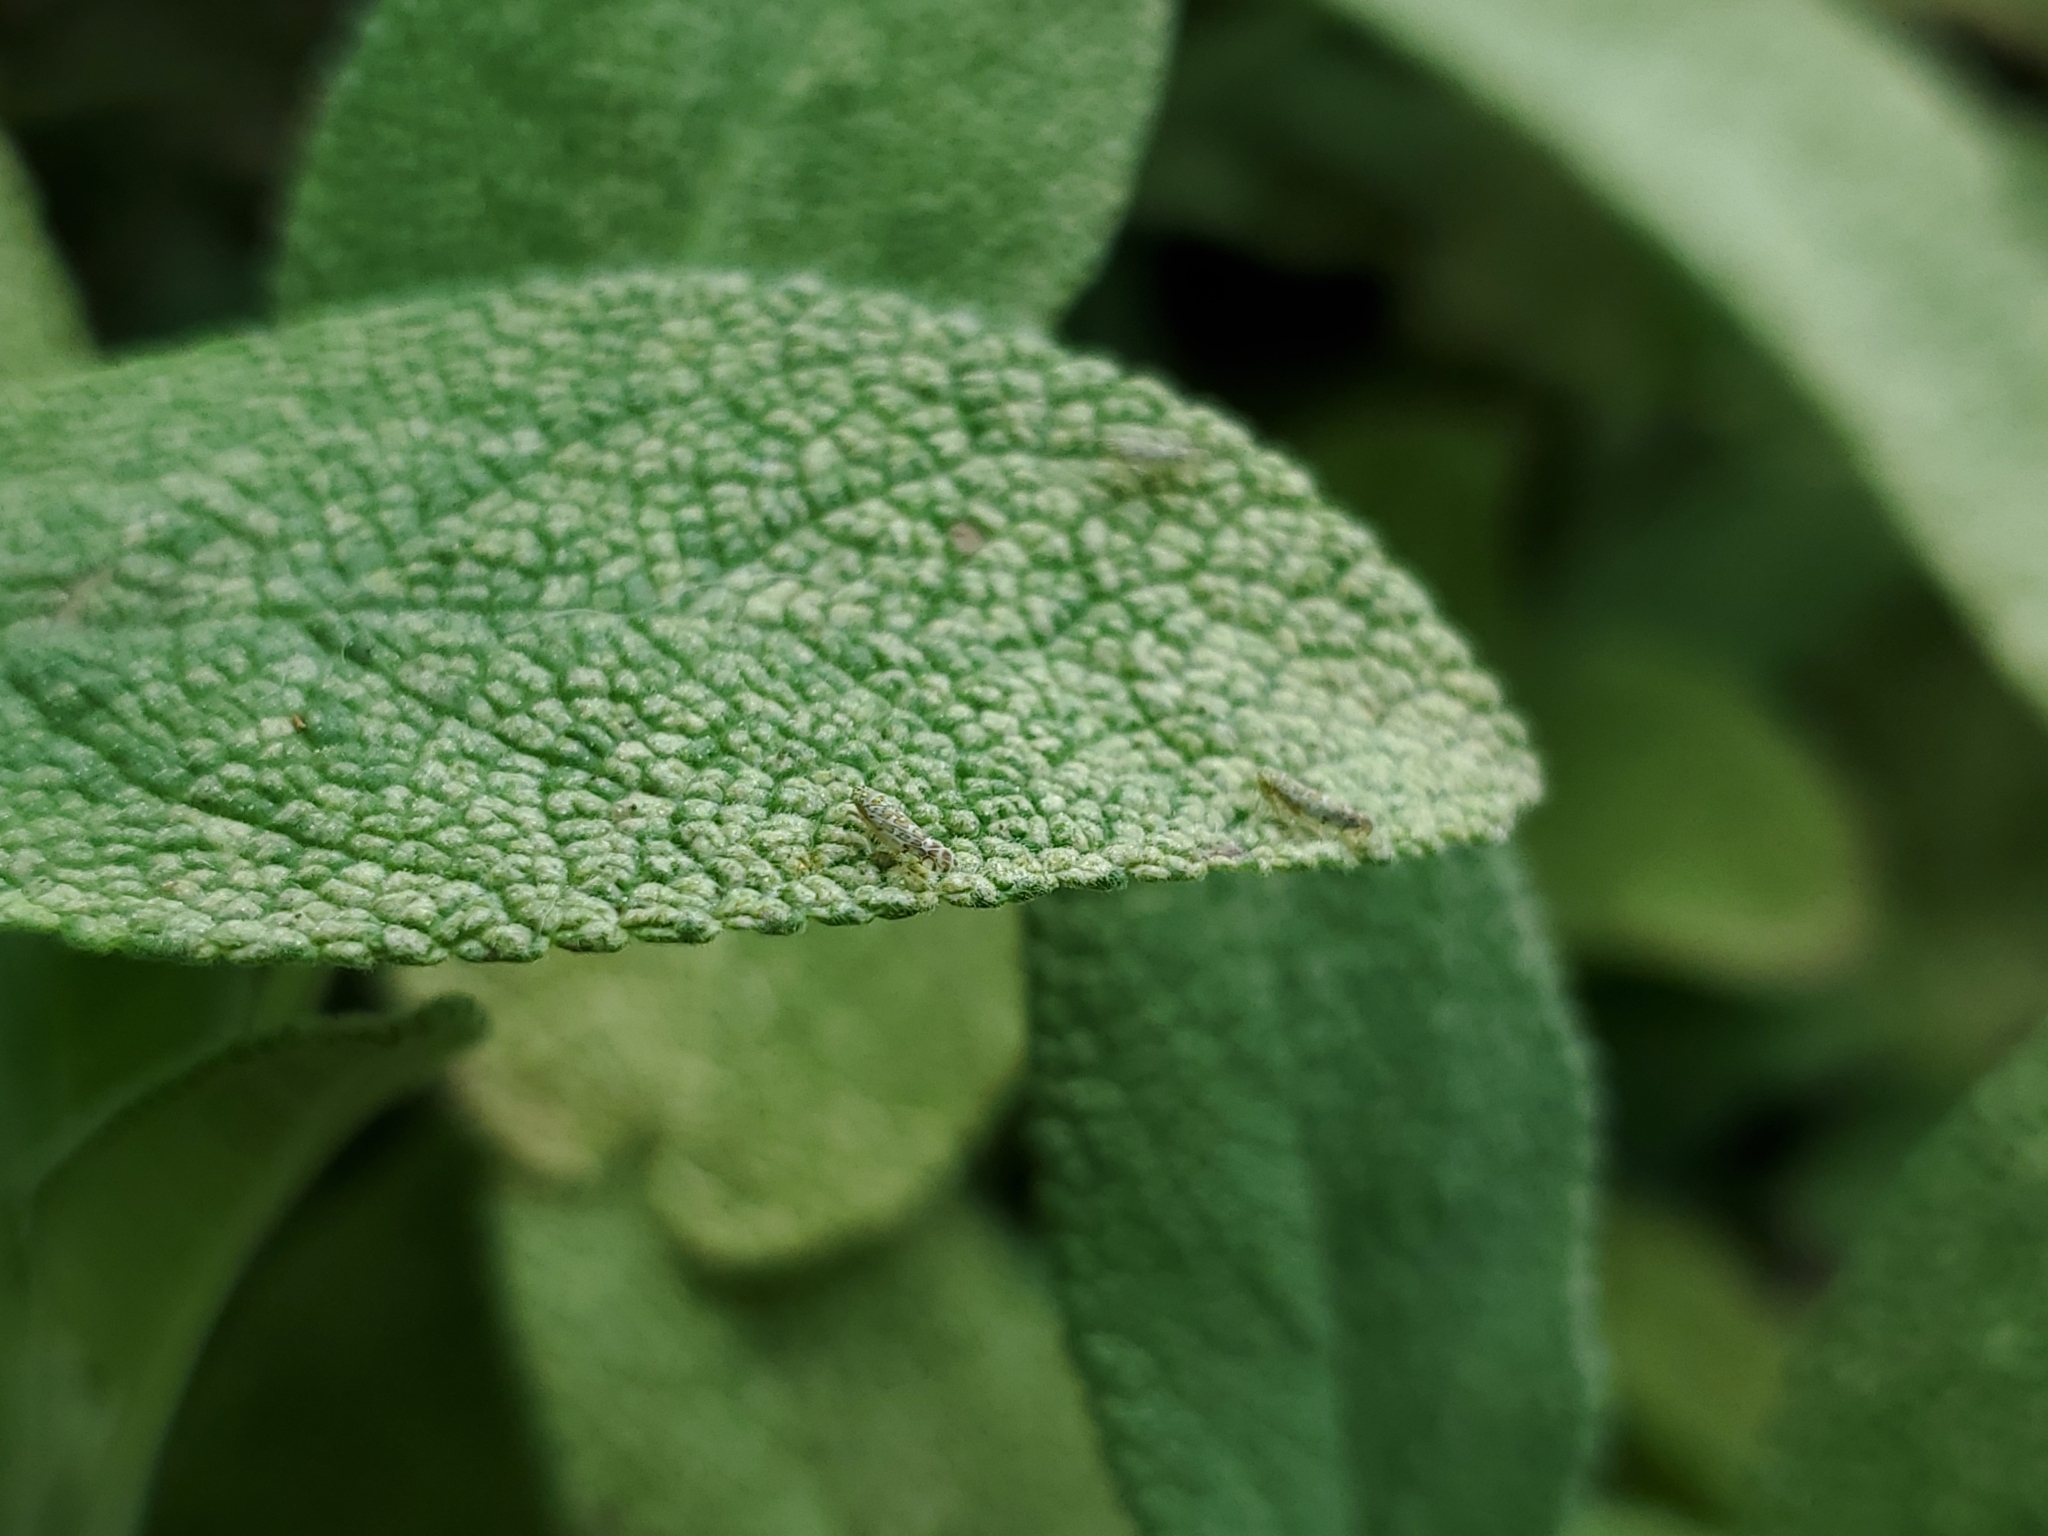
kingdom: Animalia
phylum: Arthropoda
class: Insecta
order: Hemiptera
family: Cicadellidae
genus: Eupteryx
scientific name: Eupteryx decemnotata
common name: Ligurian leafhopper
